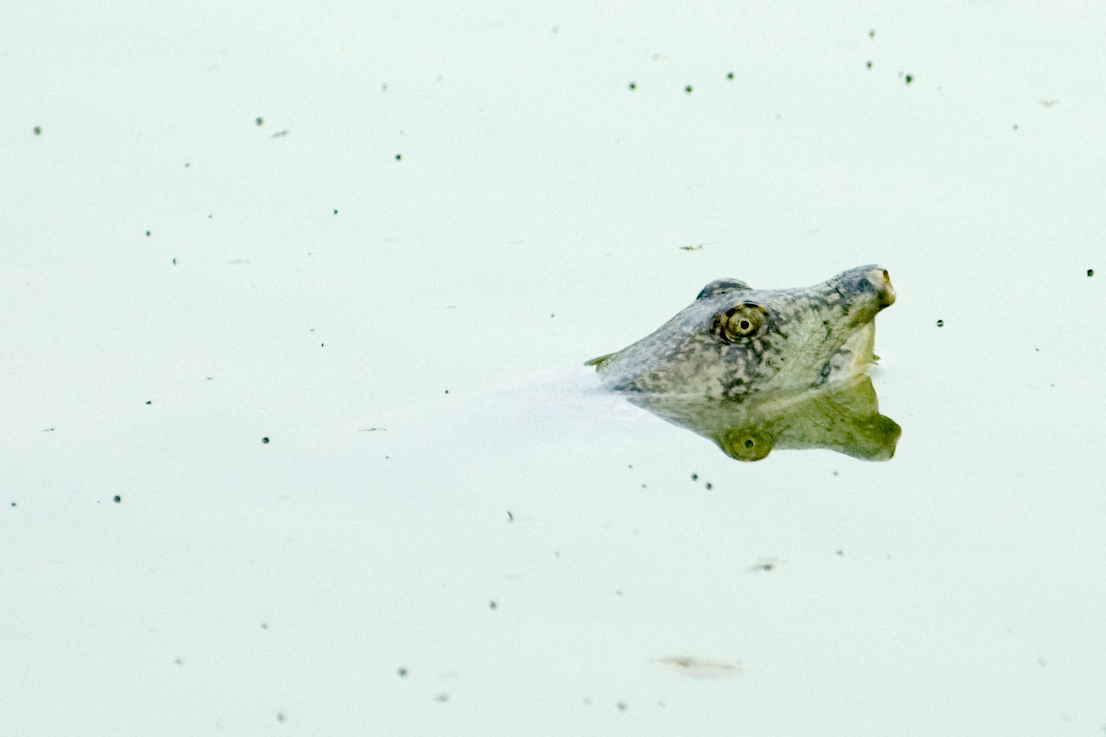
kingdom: Animalia
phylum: Chordata
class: Testudines
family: Trionychidae
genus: Nilssonia
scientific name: Nilssonia gangetica
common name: Indian softshell turtle
